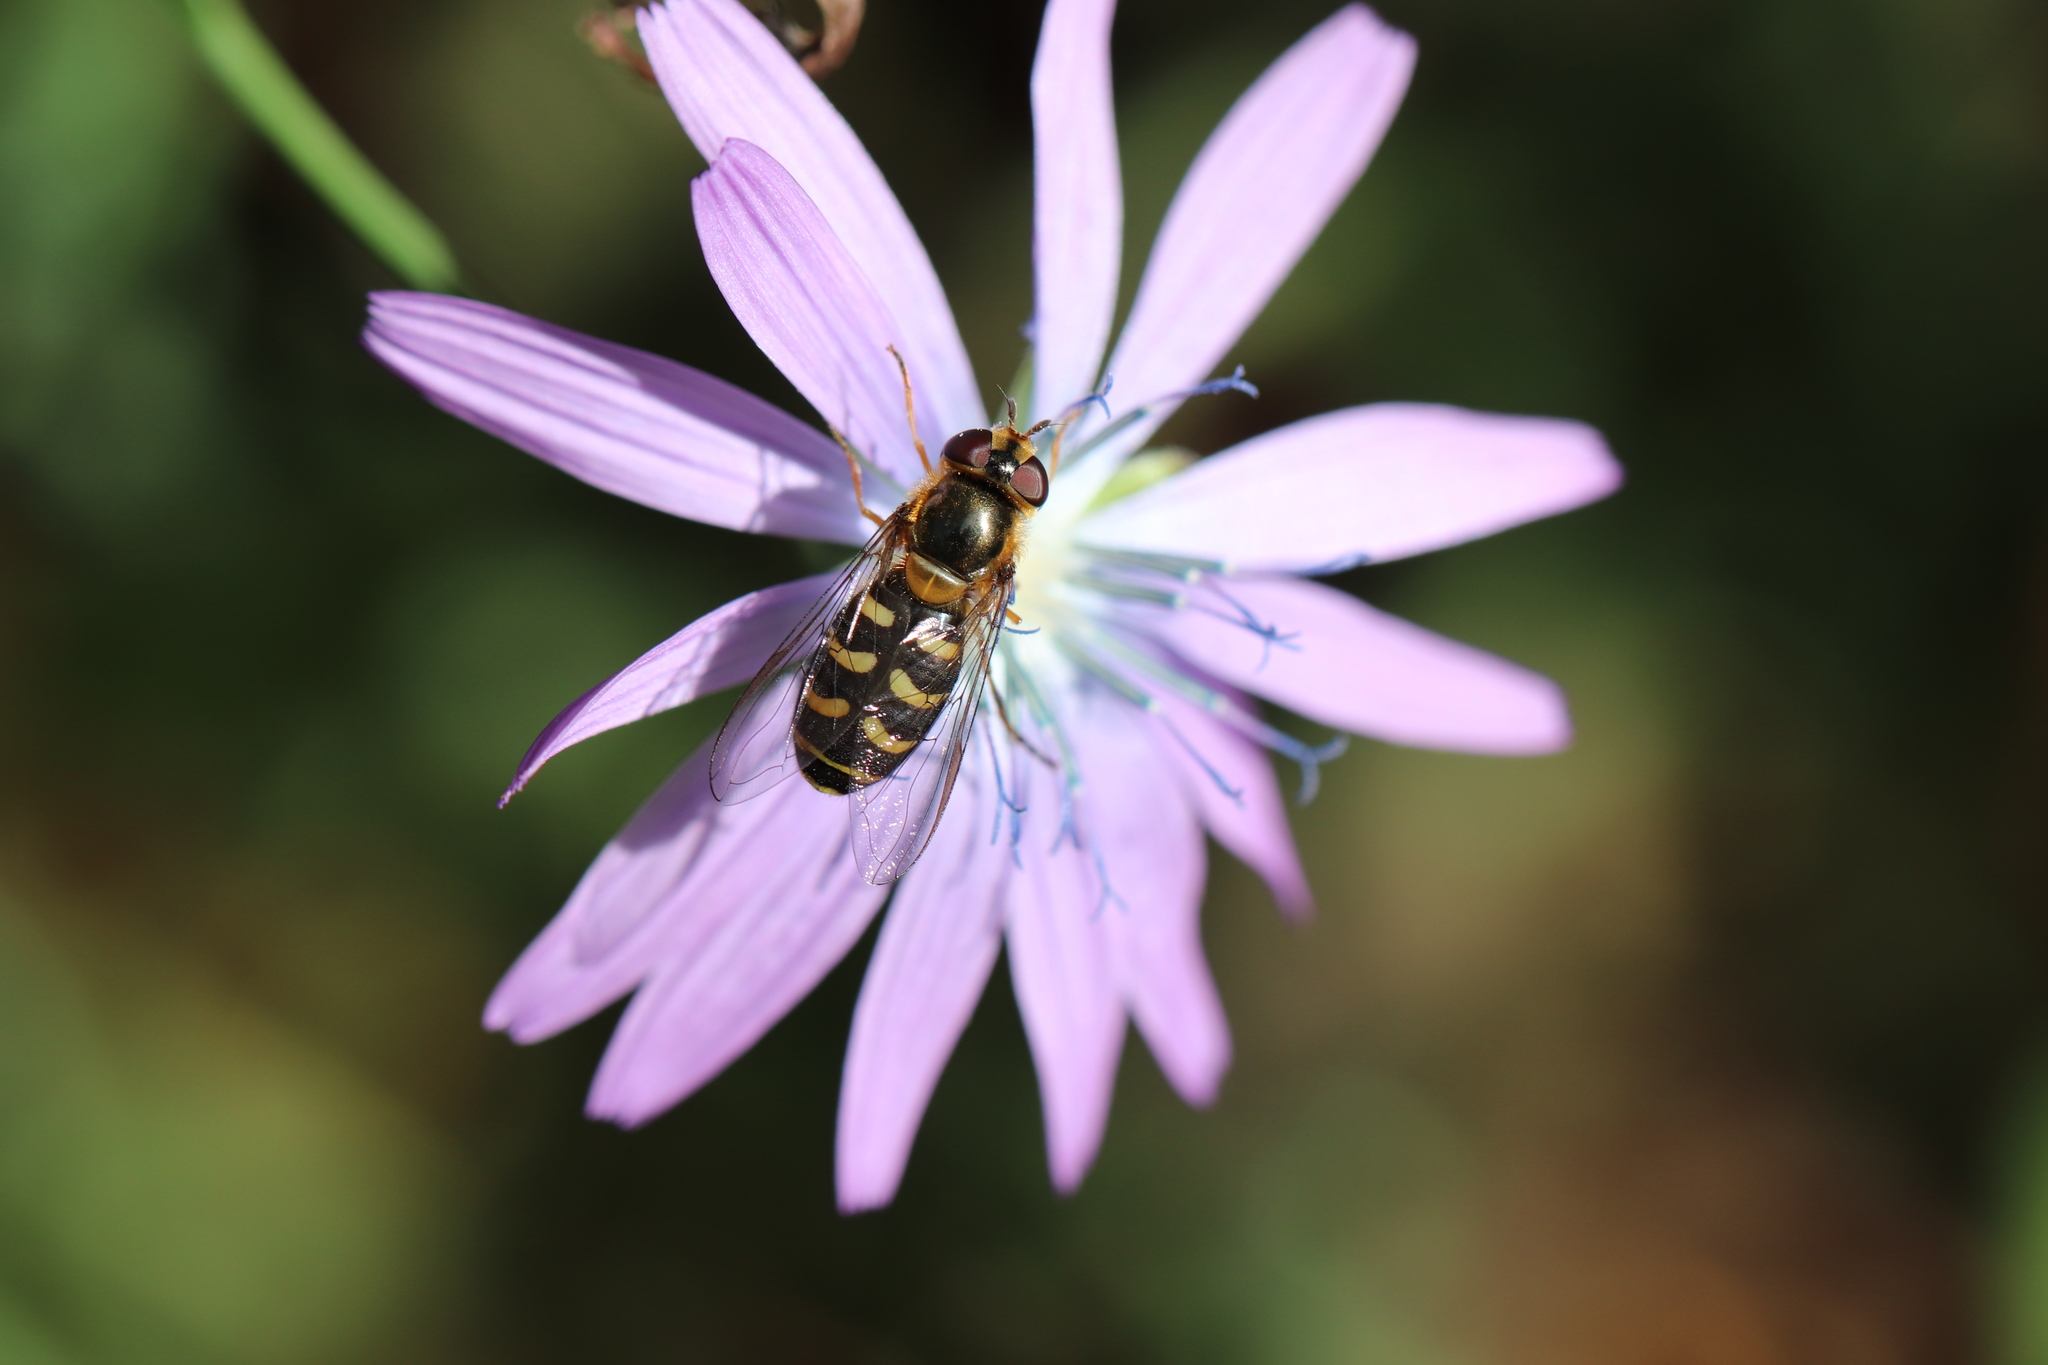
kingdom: Animalia
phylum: Arthropoda
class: Insecta
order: Diptera
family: Syrphidae
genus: Scaeva
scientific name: Scaeva pyrastri
